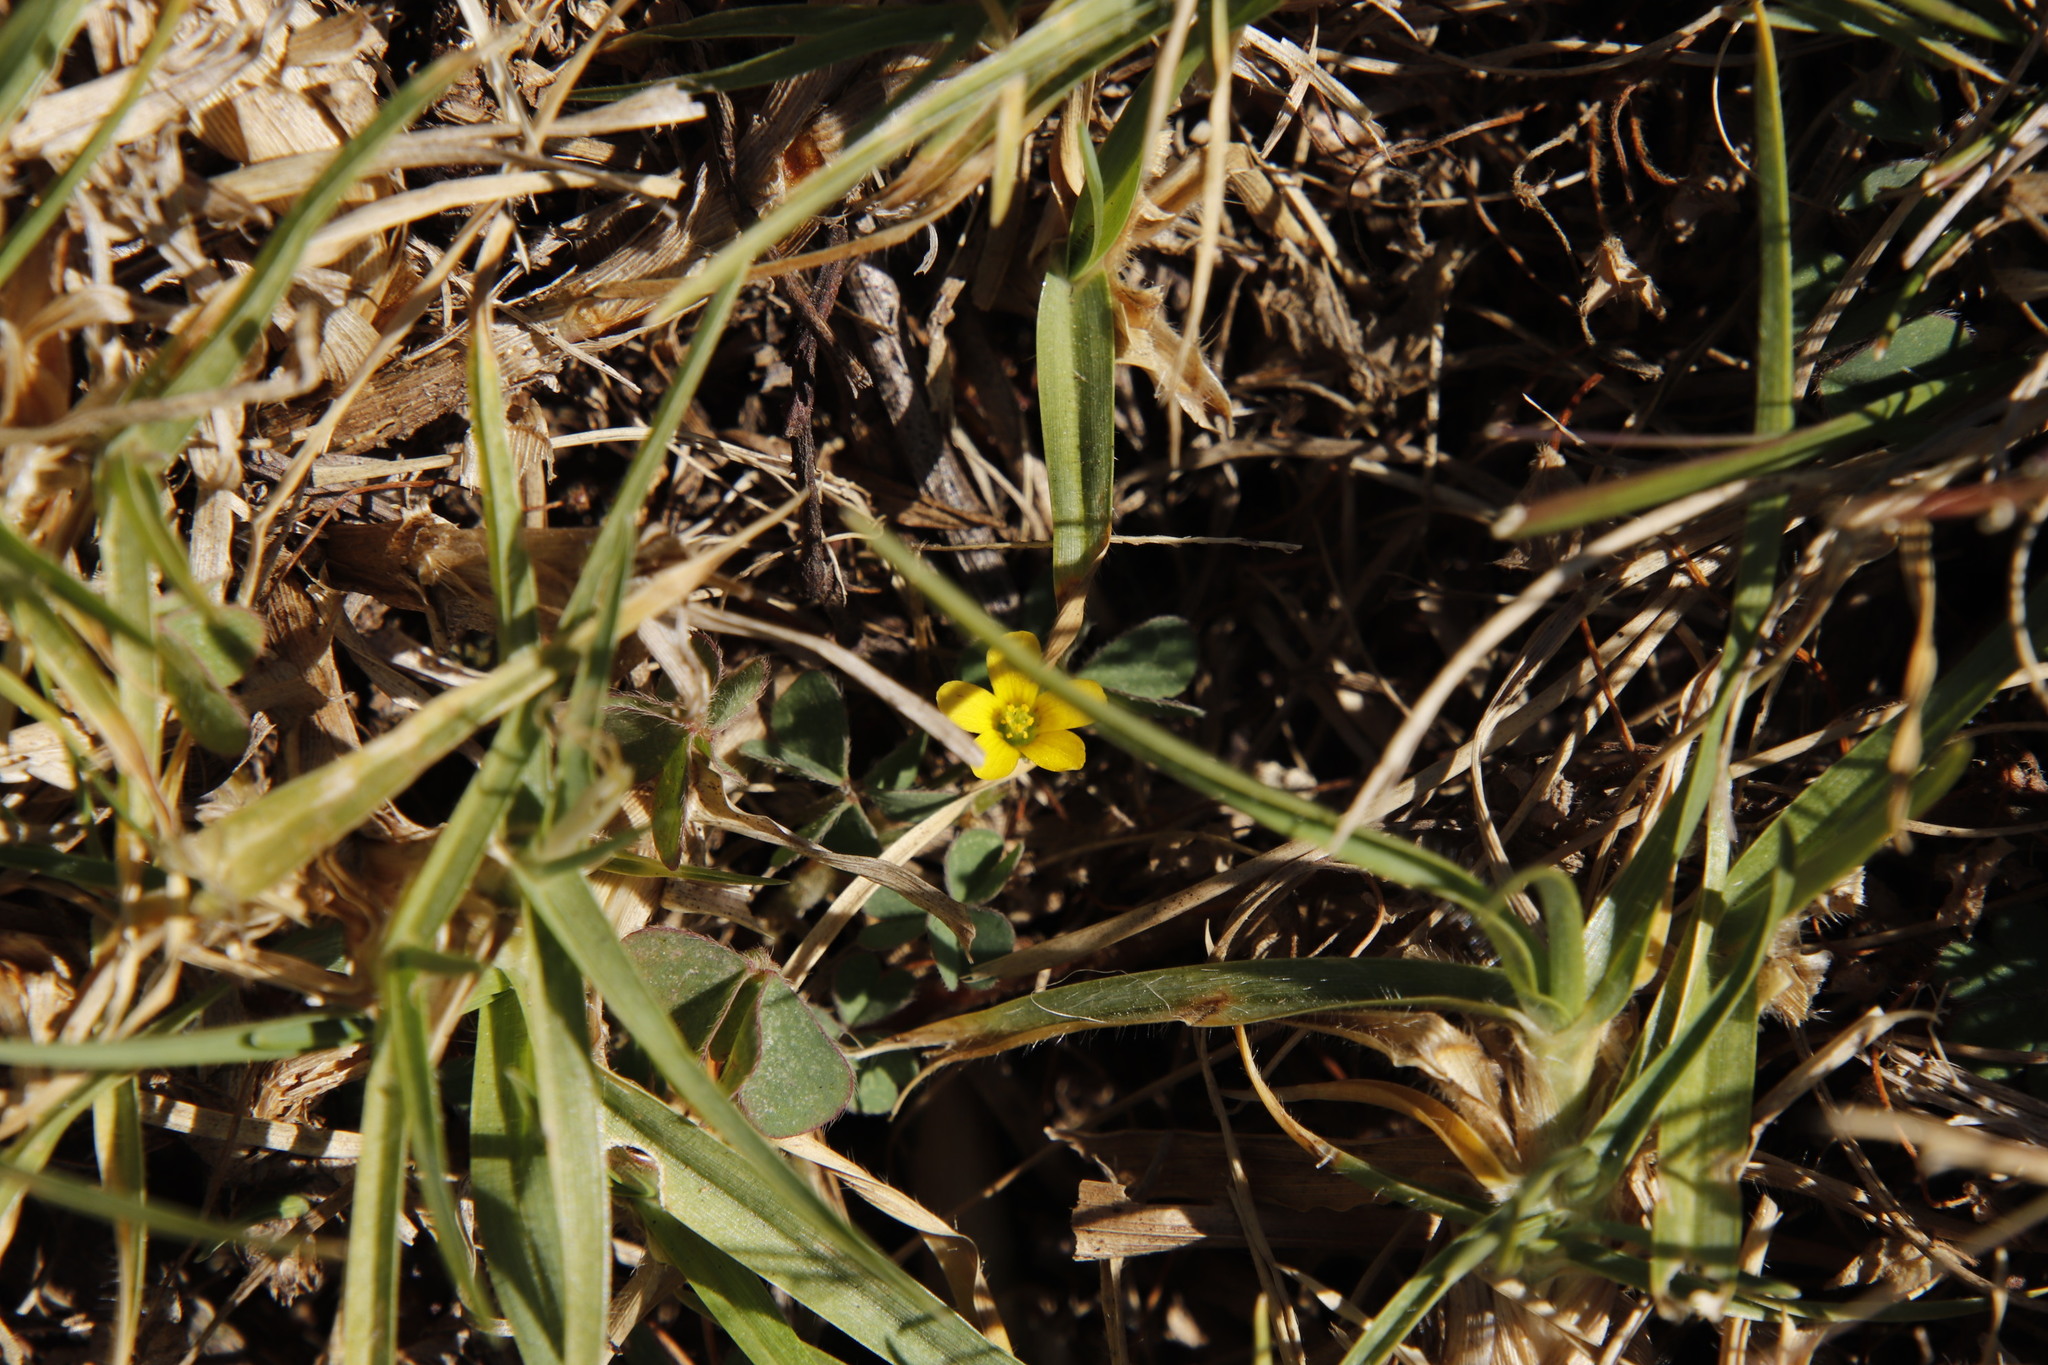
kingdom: Plantae
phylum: Tracheophyta
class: Magnoliopsida
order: Oxalidales
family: Oxalidaceae
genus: Oxalis
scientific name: Oxalis corniculata
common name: Procumbent yellow-sorrel
